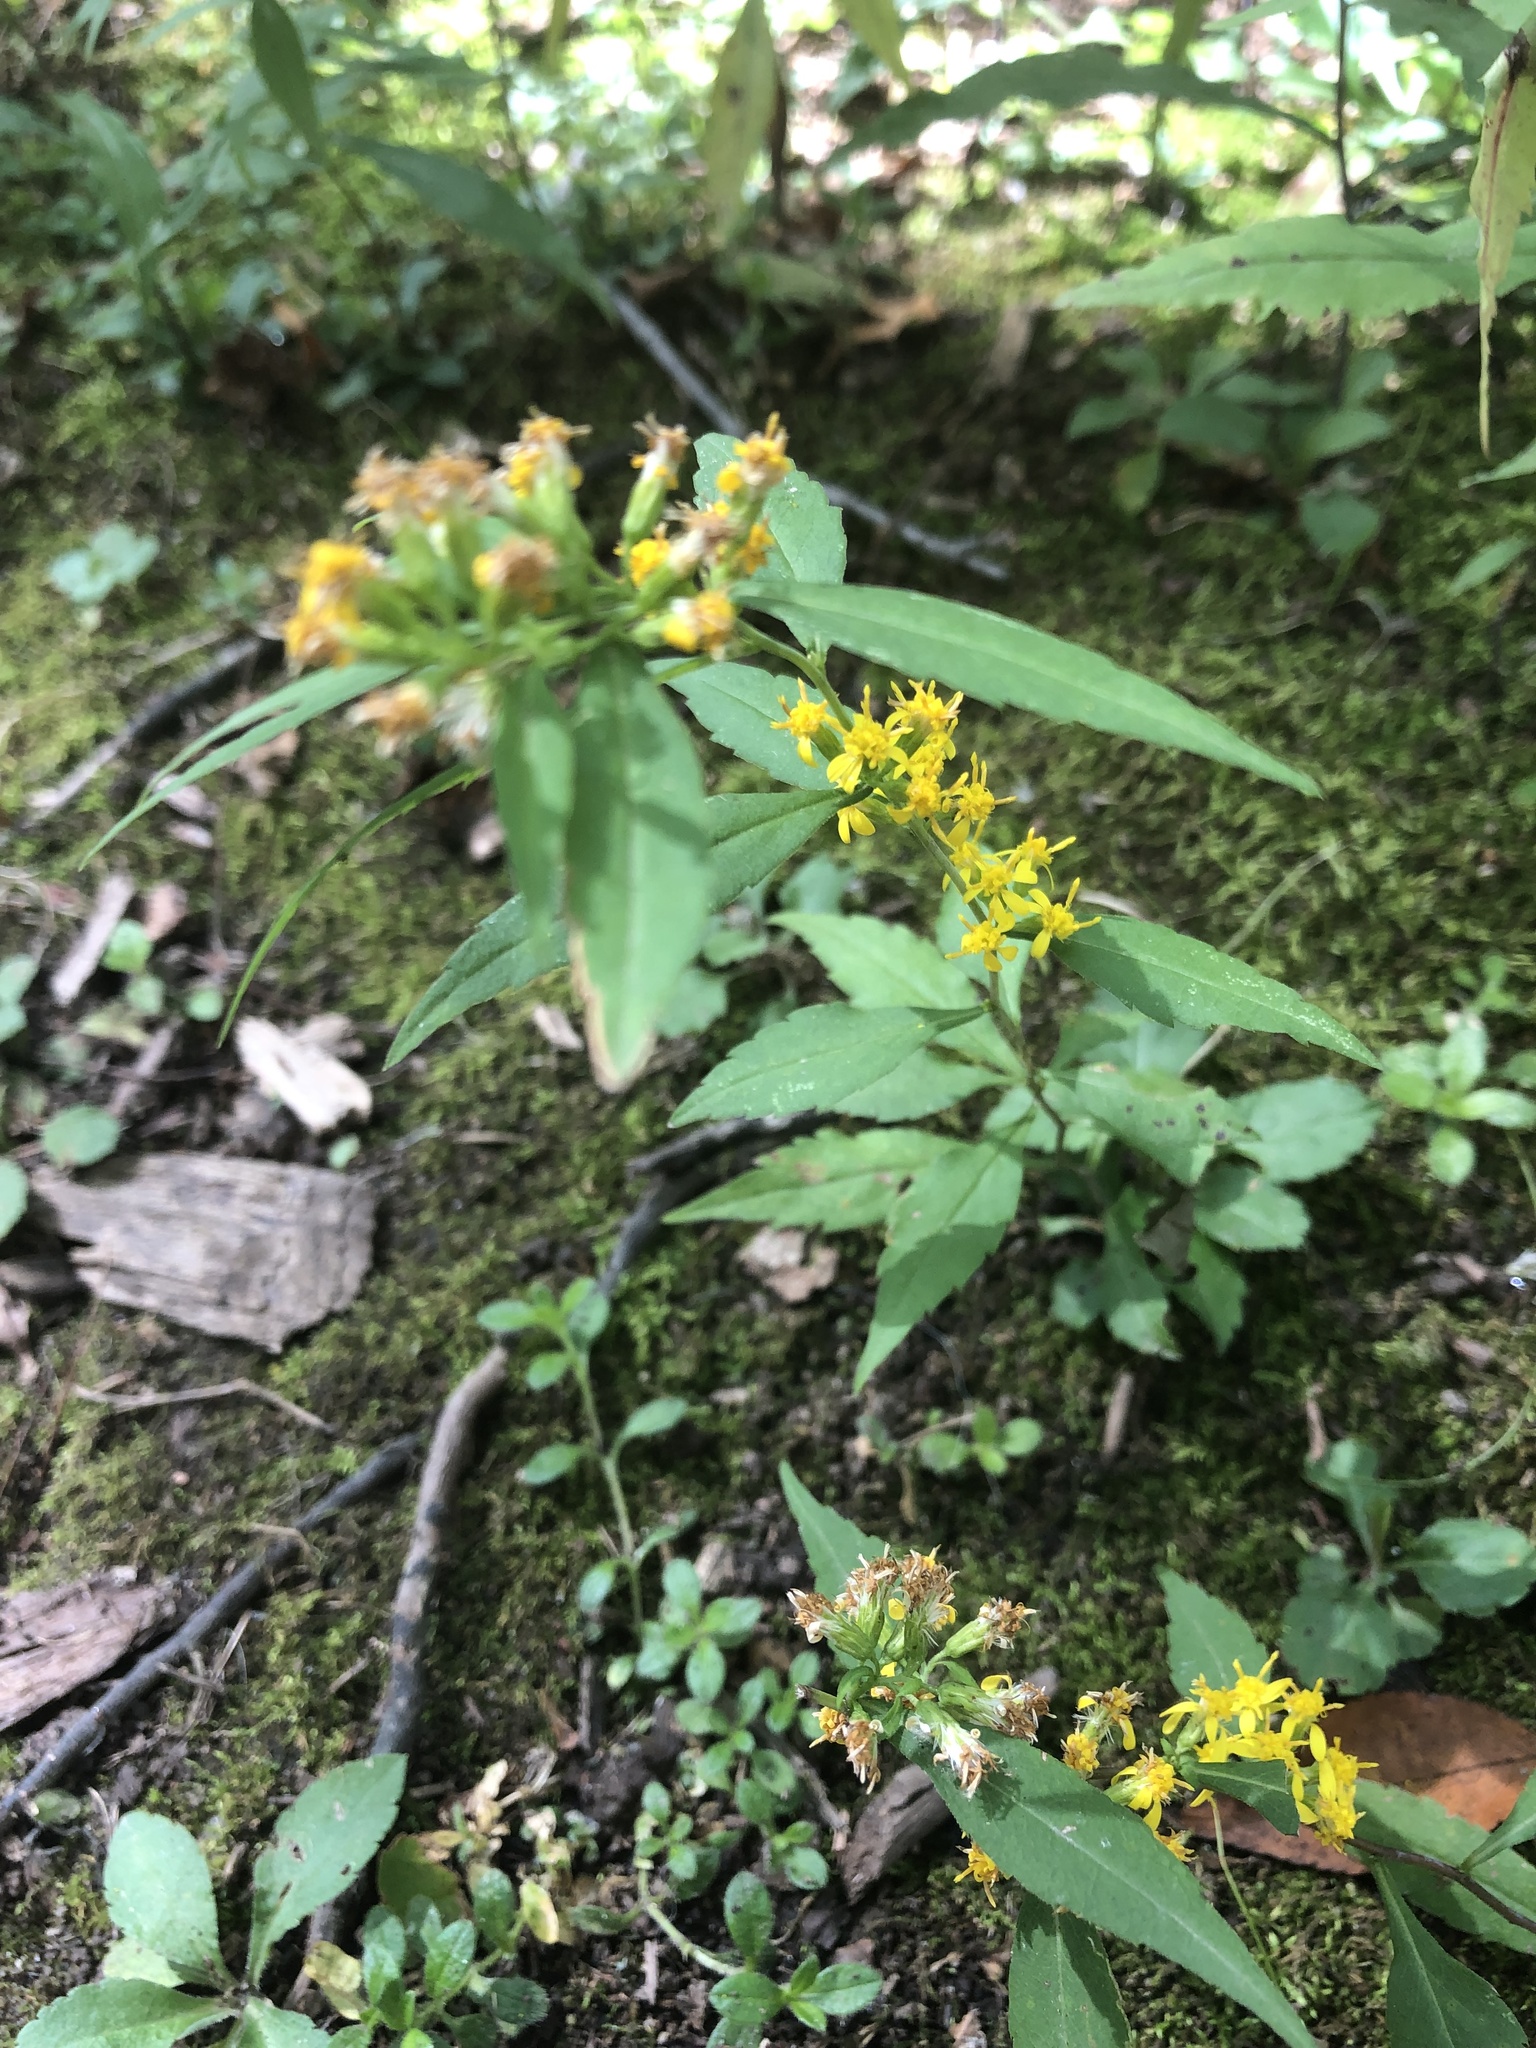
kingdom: Plantae
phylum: Tracheophyta
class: Magnoliopsida
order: Asterales
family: Asteraceae
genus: Solidago
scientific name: Solidago caesia
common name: Woodland goldenrod
